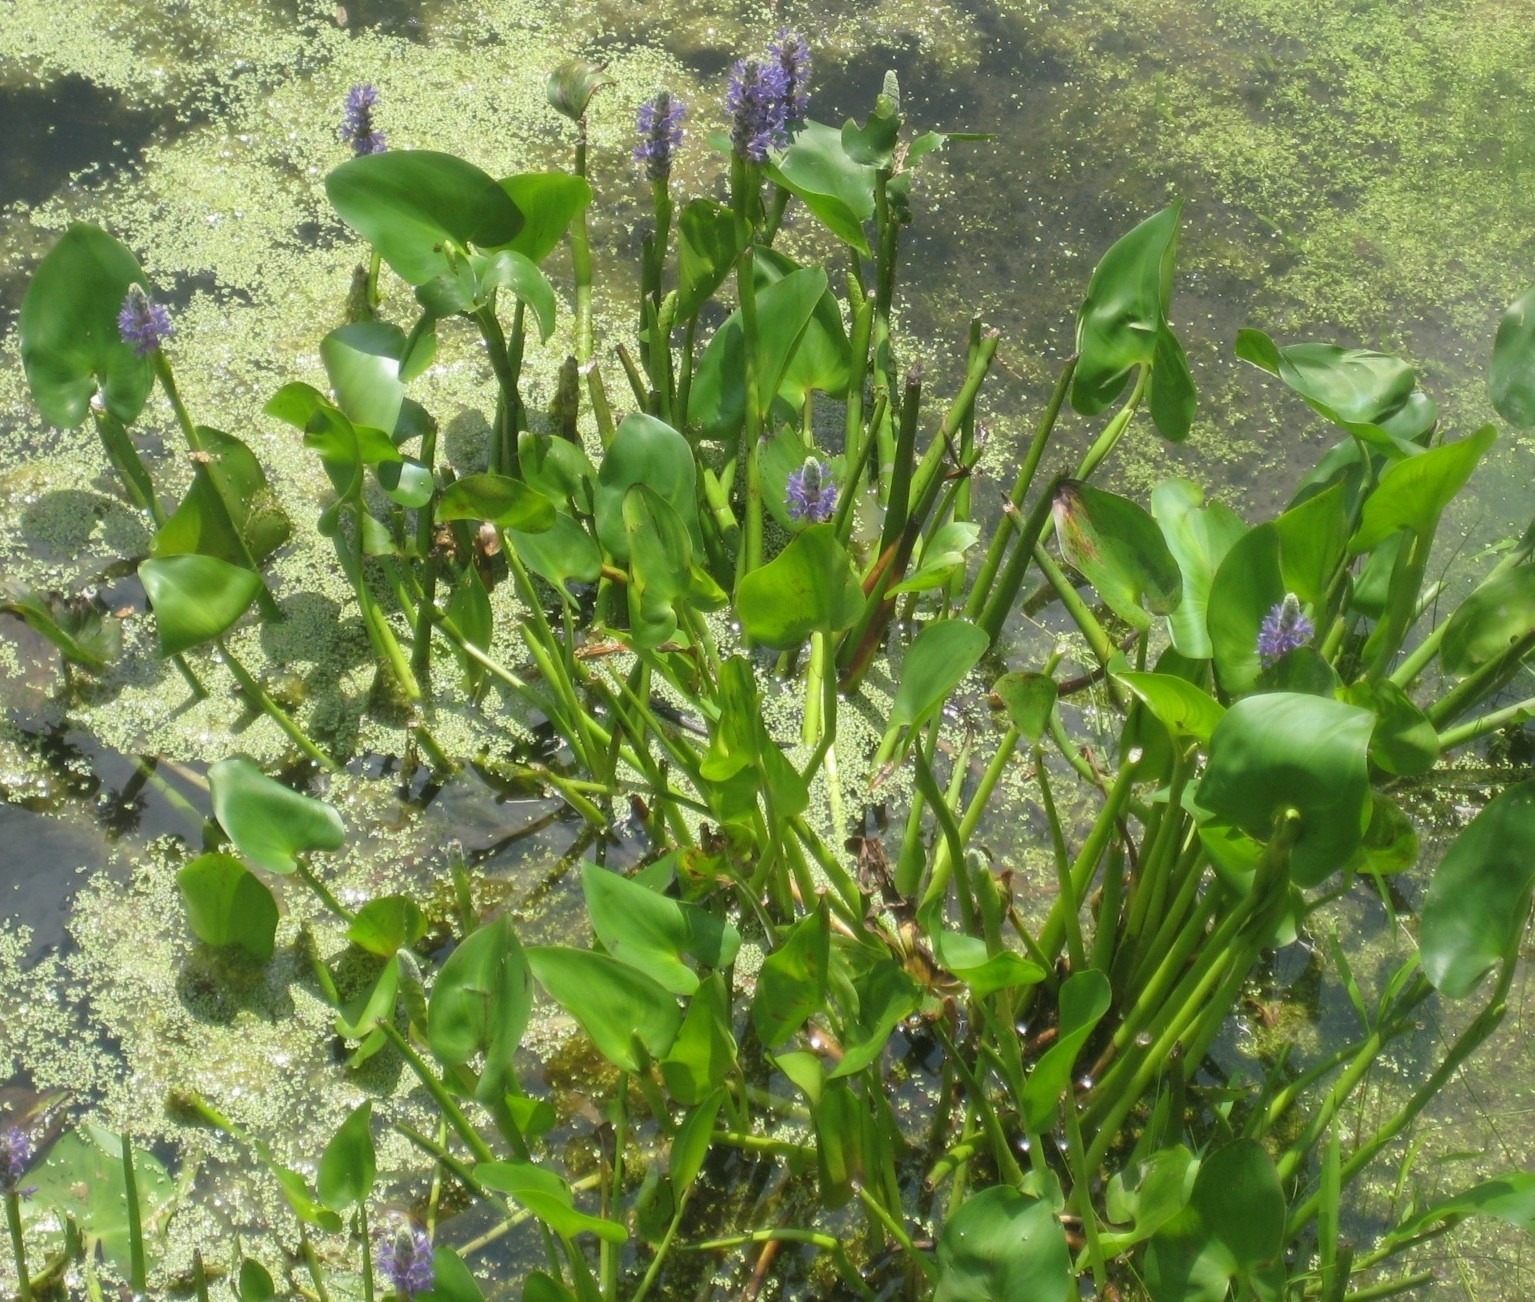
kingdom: Plantae
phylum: Tracheophyta
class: Liliopsida
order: Commelinales
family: Pontederiaceae
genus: Pontederia
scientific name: Pontederia cordata
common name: Pickerelweed
